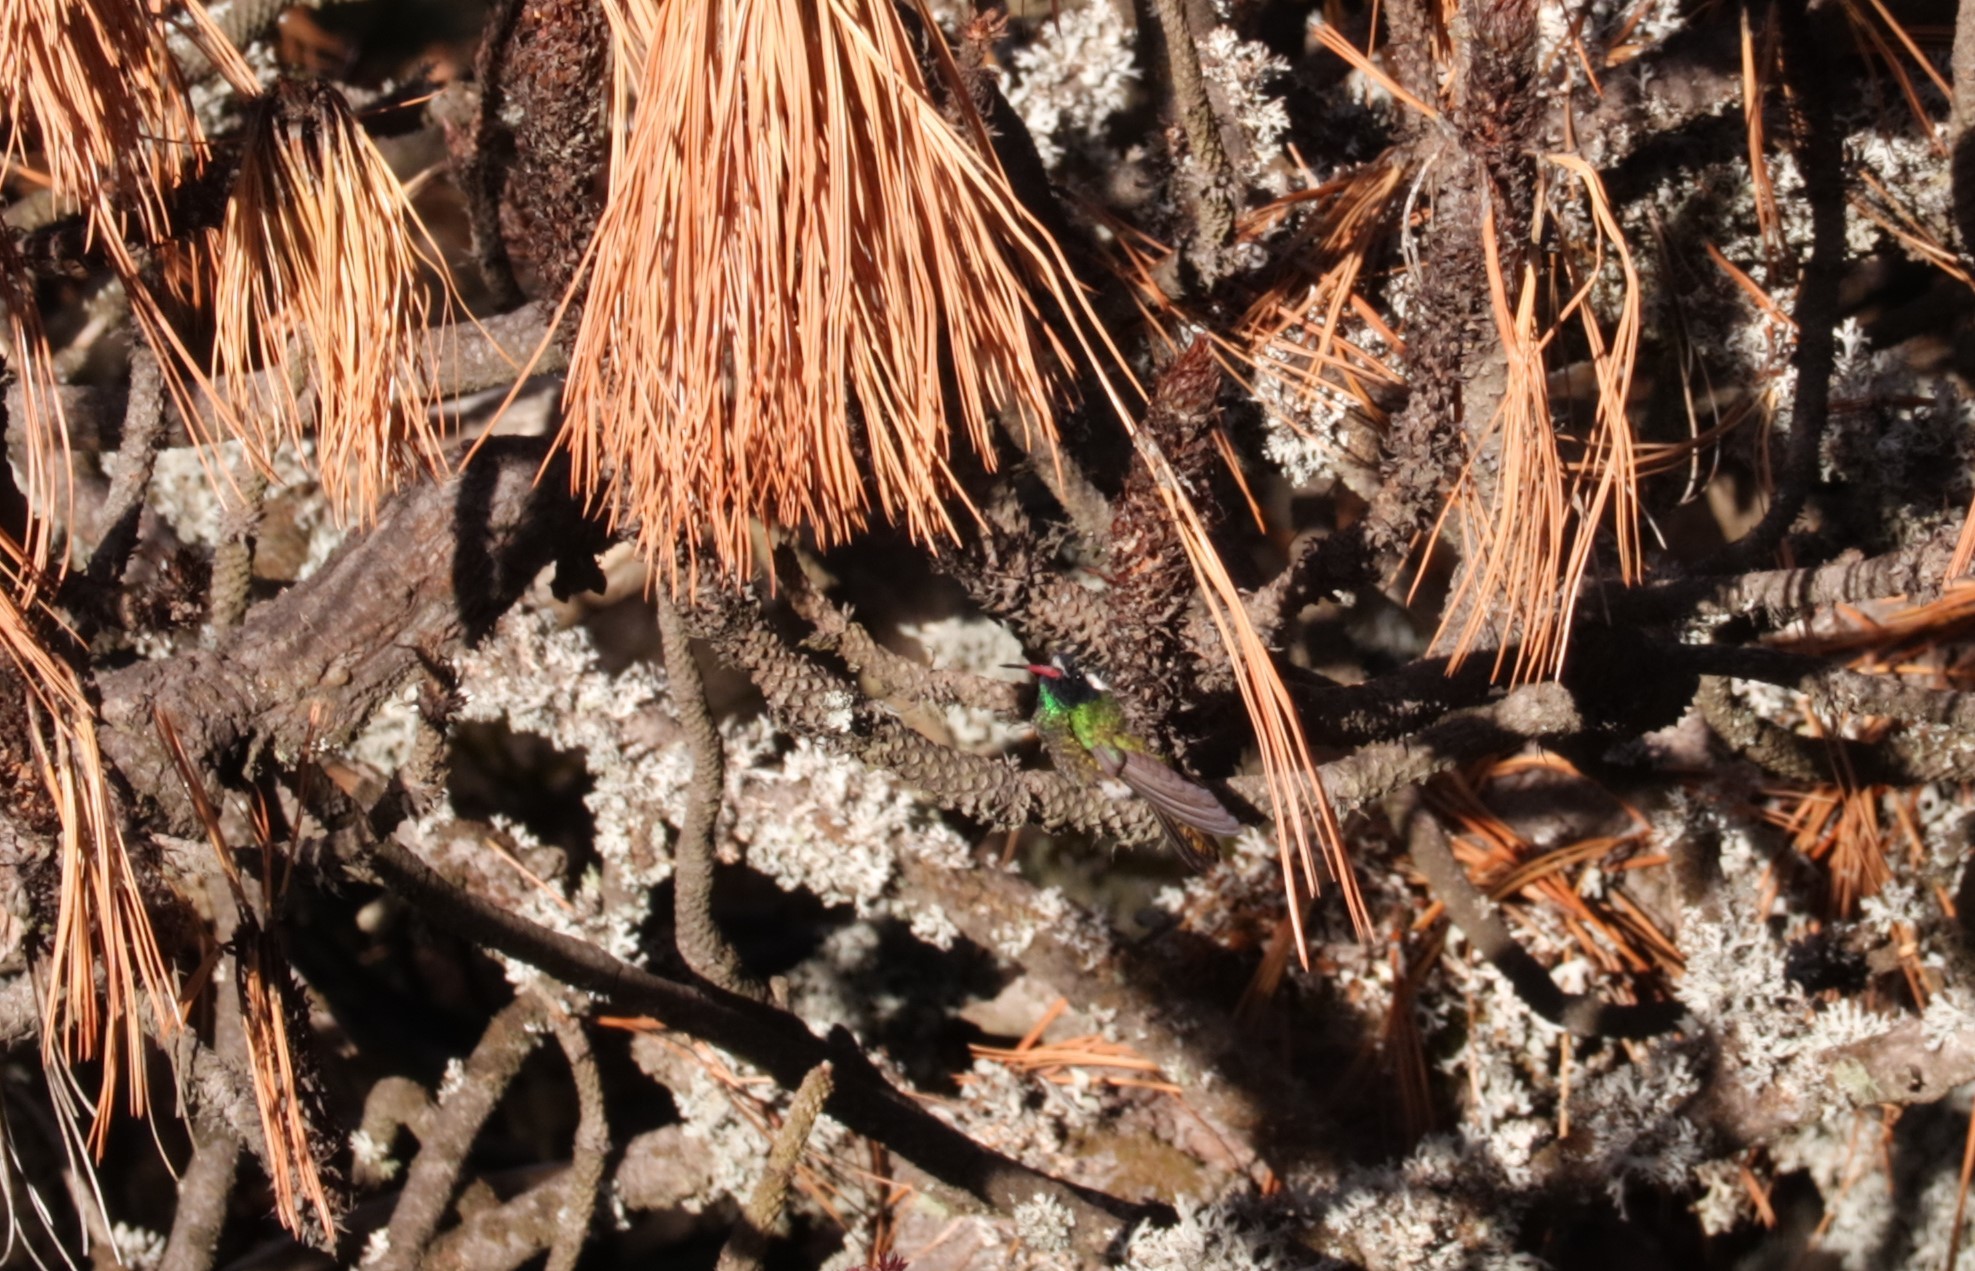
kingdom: Animalia
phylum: Chordata
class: Aves
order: Apodiformes
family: Trochilidae
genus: Basilinna
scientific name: Basilinna leucotis
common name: White-eared hummingbird
